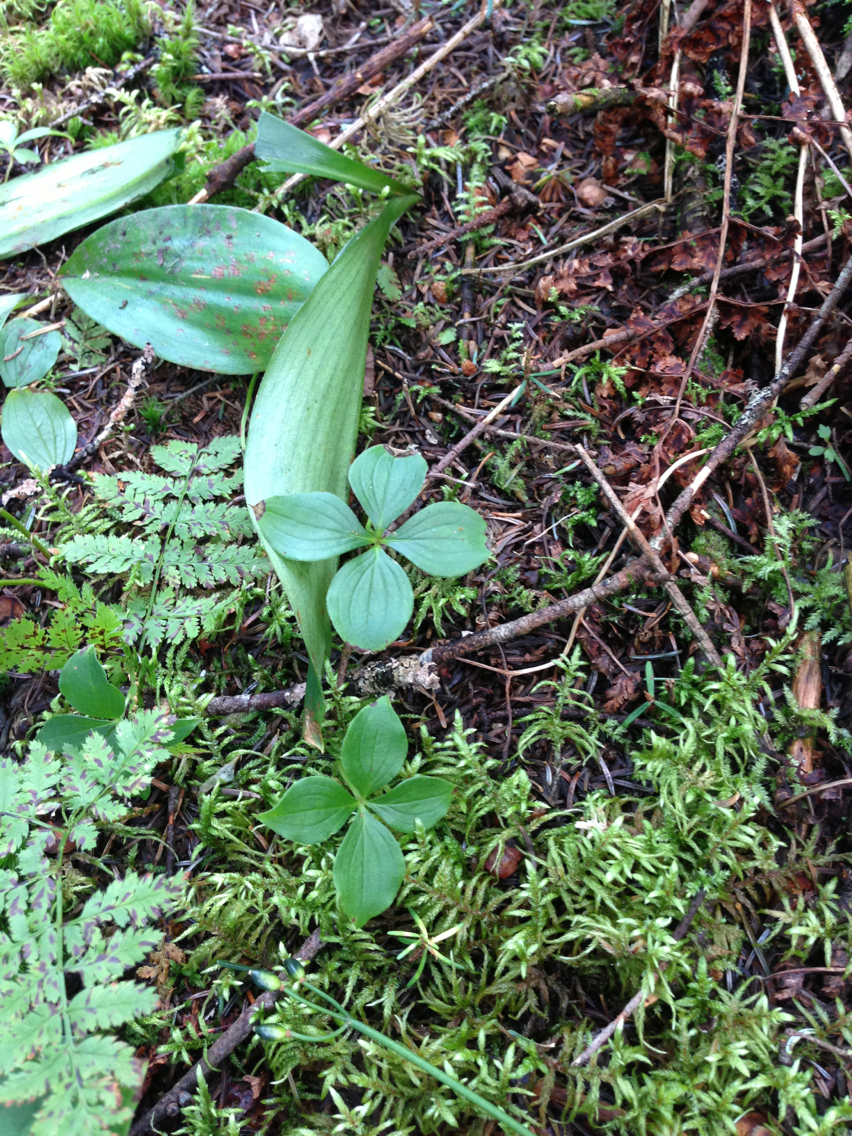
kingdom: Plantae
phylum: Tracheophyta
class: Magnoliopsida
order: Cornales
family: Cornaceae
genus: Cornus
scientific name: Cornus canadensis
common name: Creeping dogwood
